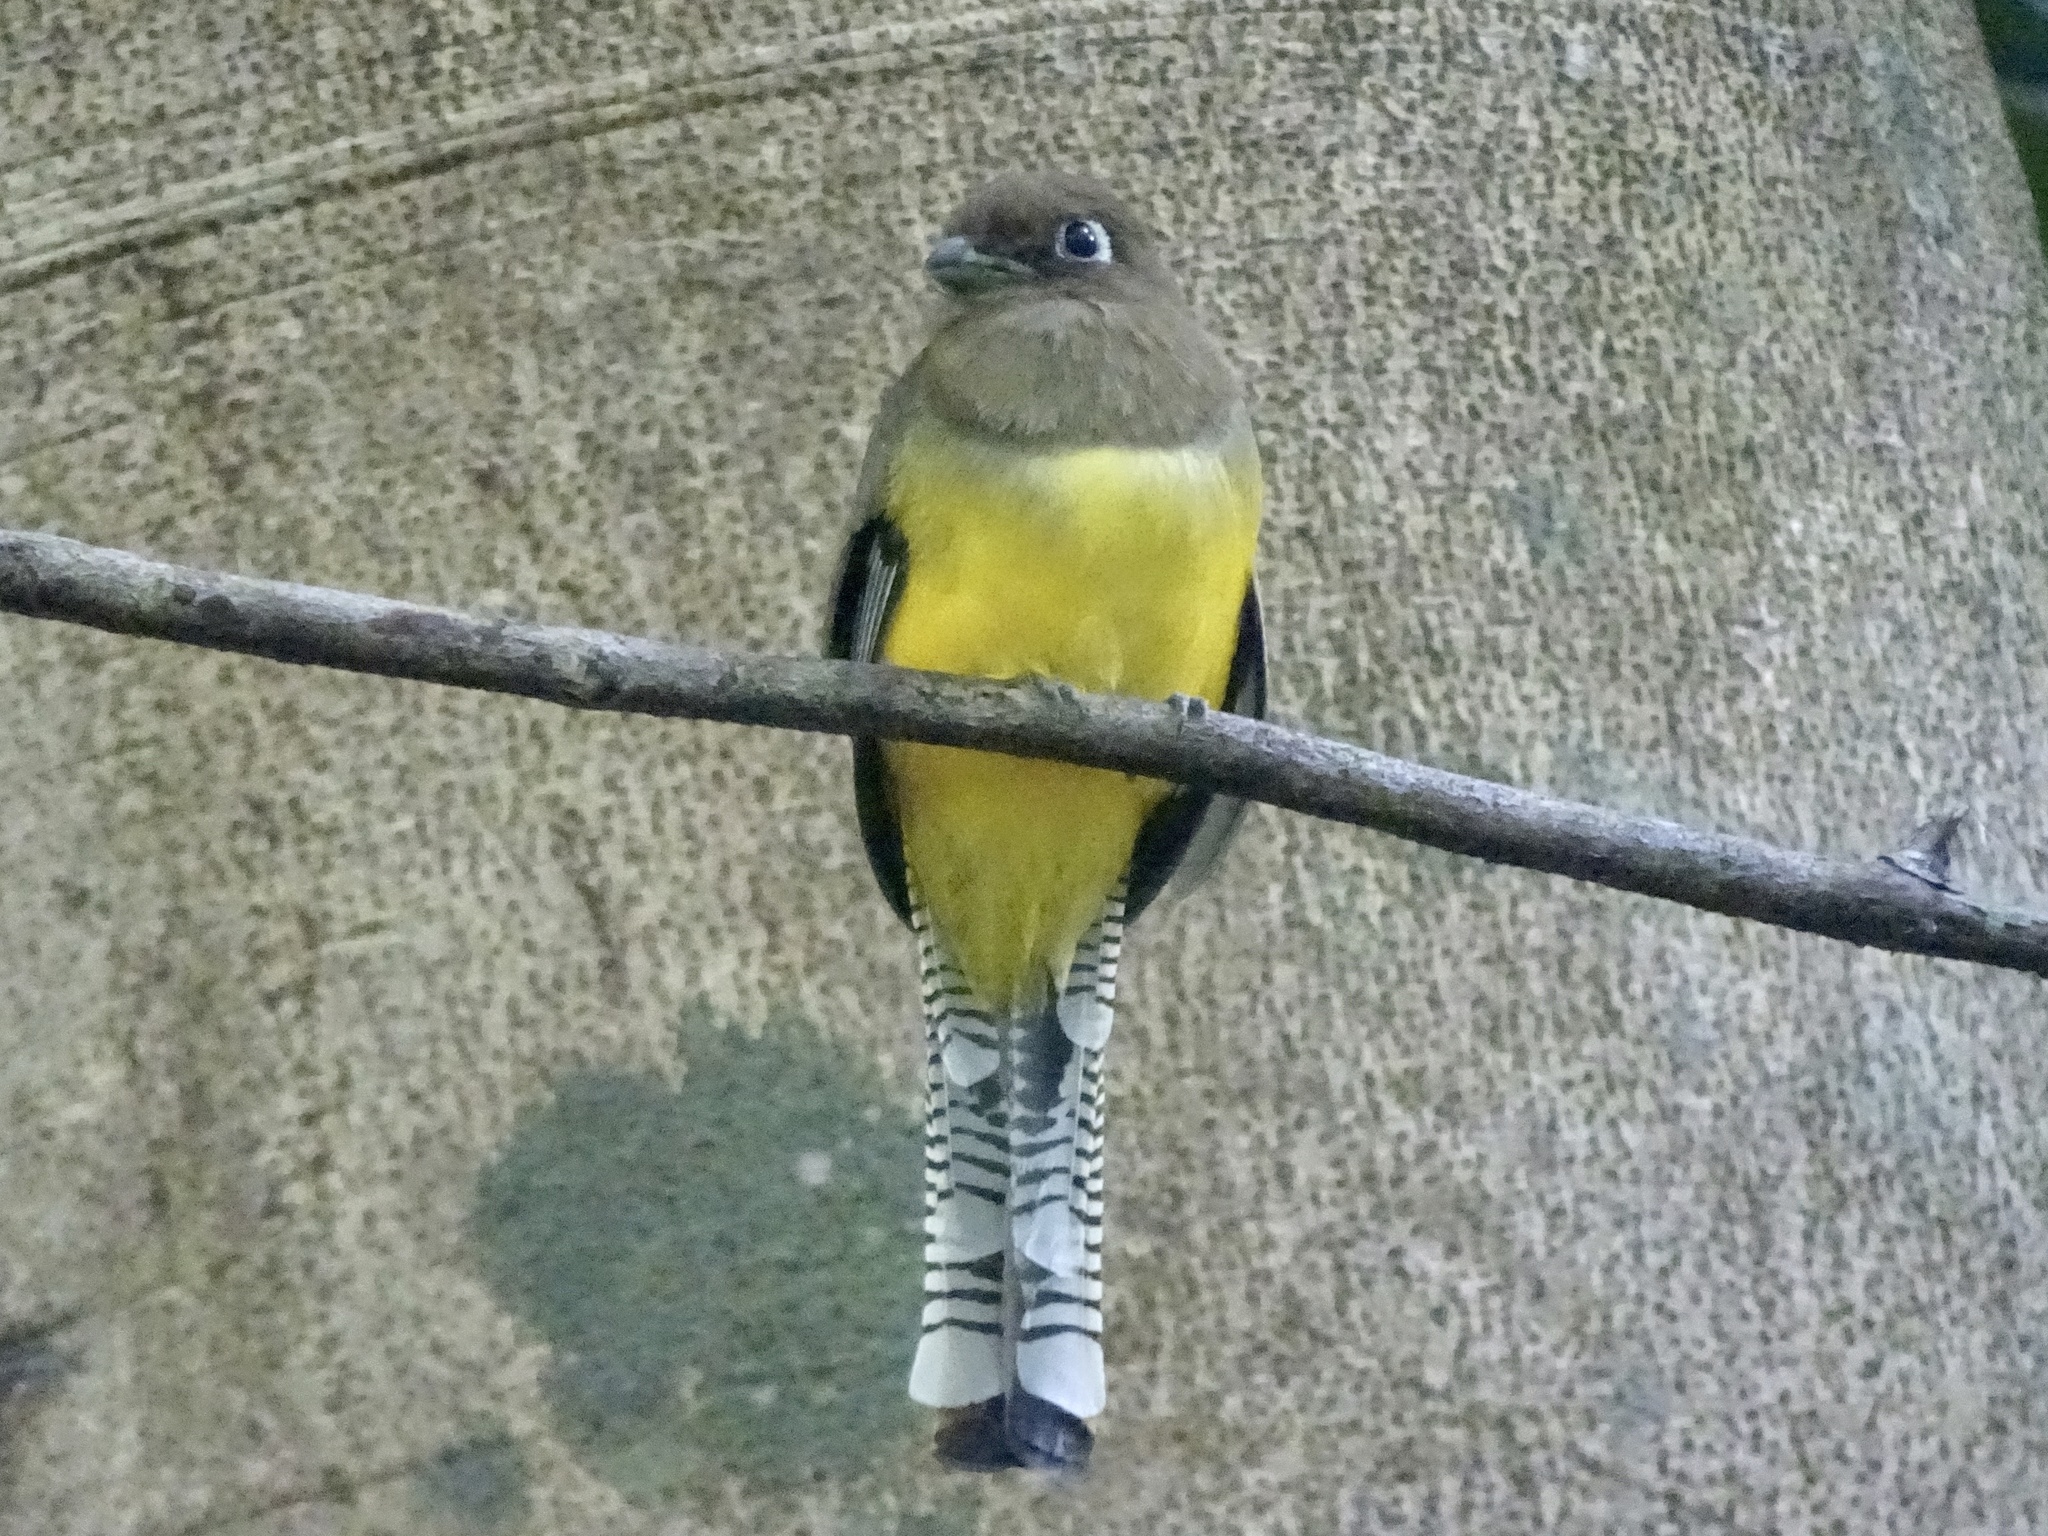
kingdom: Animalia
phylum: Chordata
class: Aves
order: Trogoniformes
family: Trogonidae
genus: Trogon
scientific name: Trogon rufus
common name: Black-throated trogon
